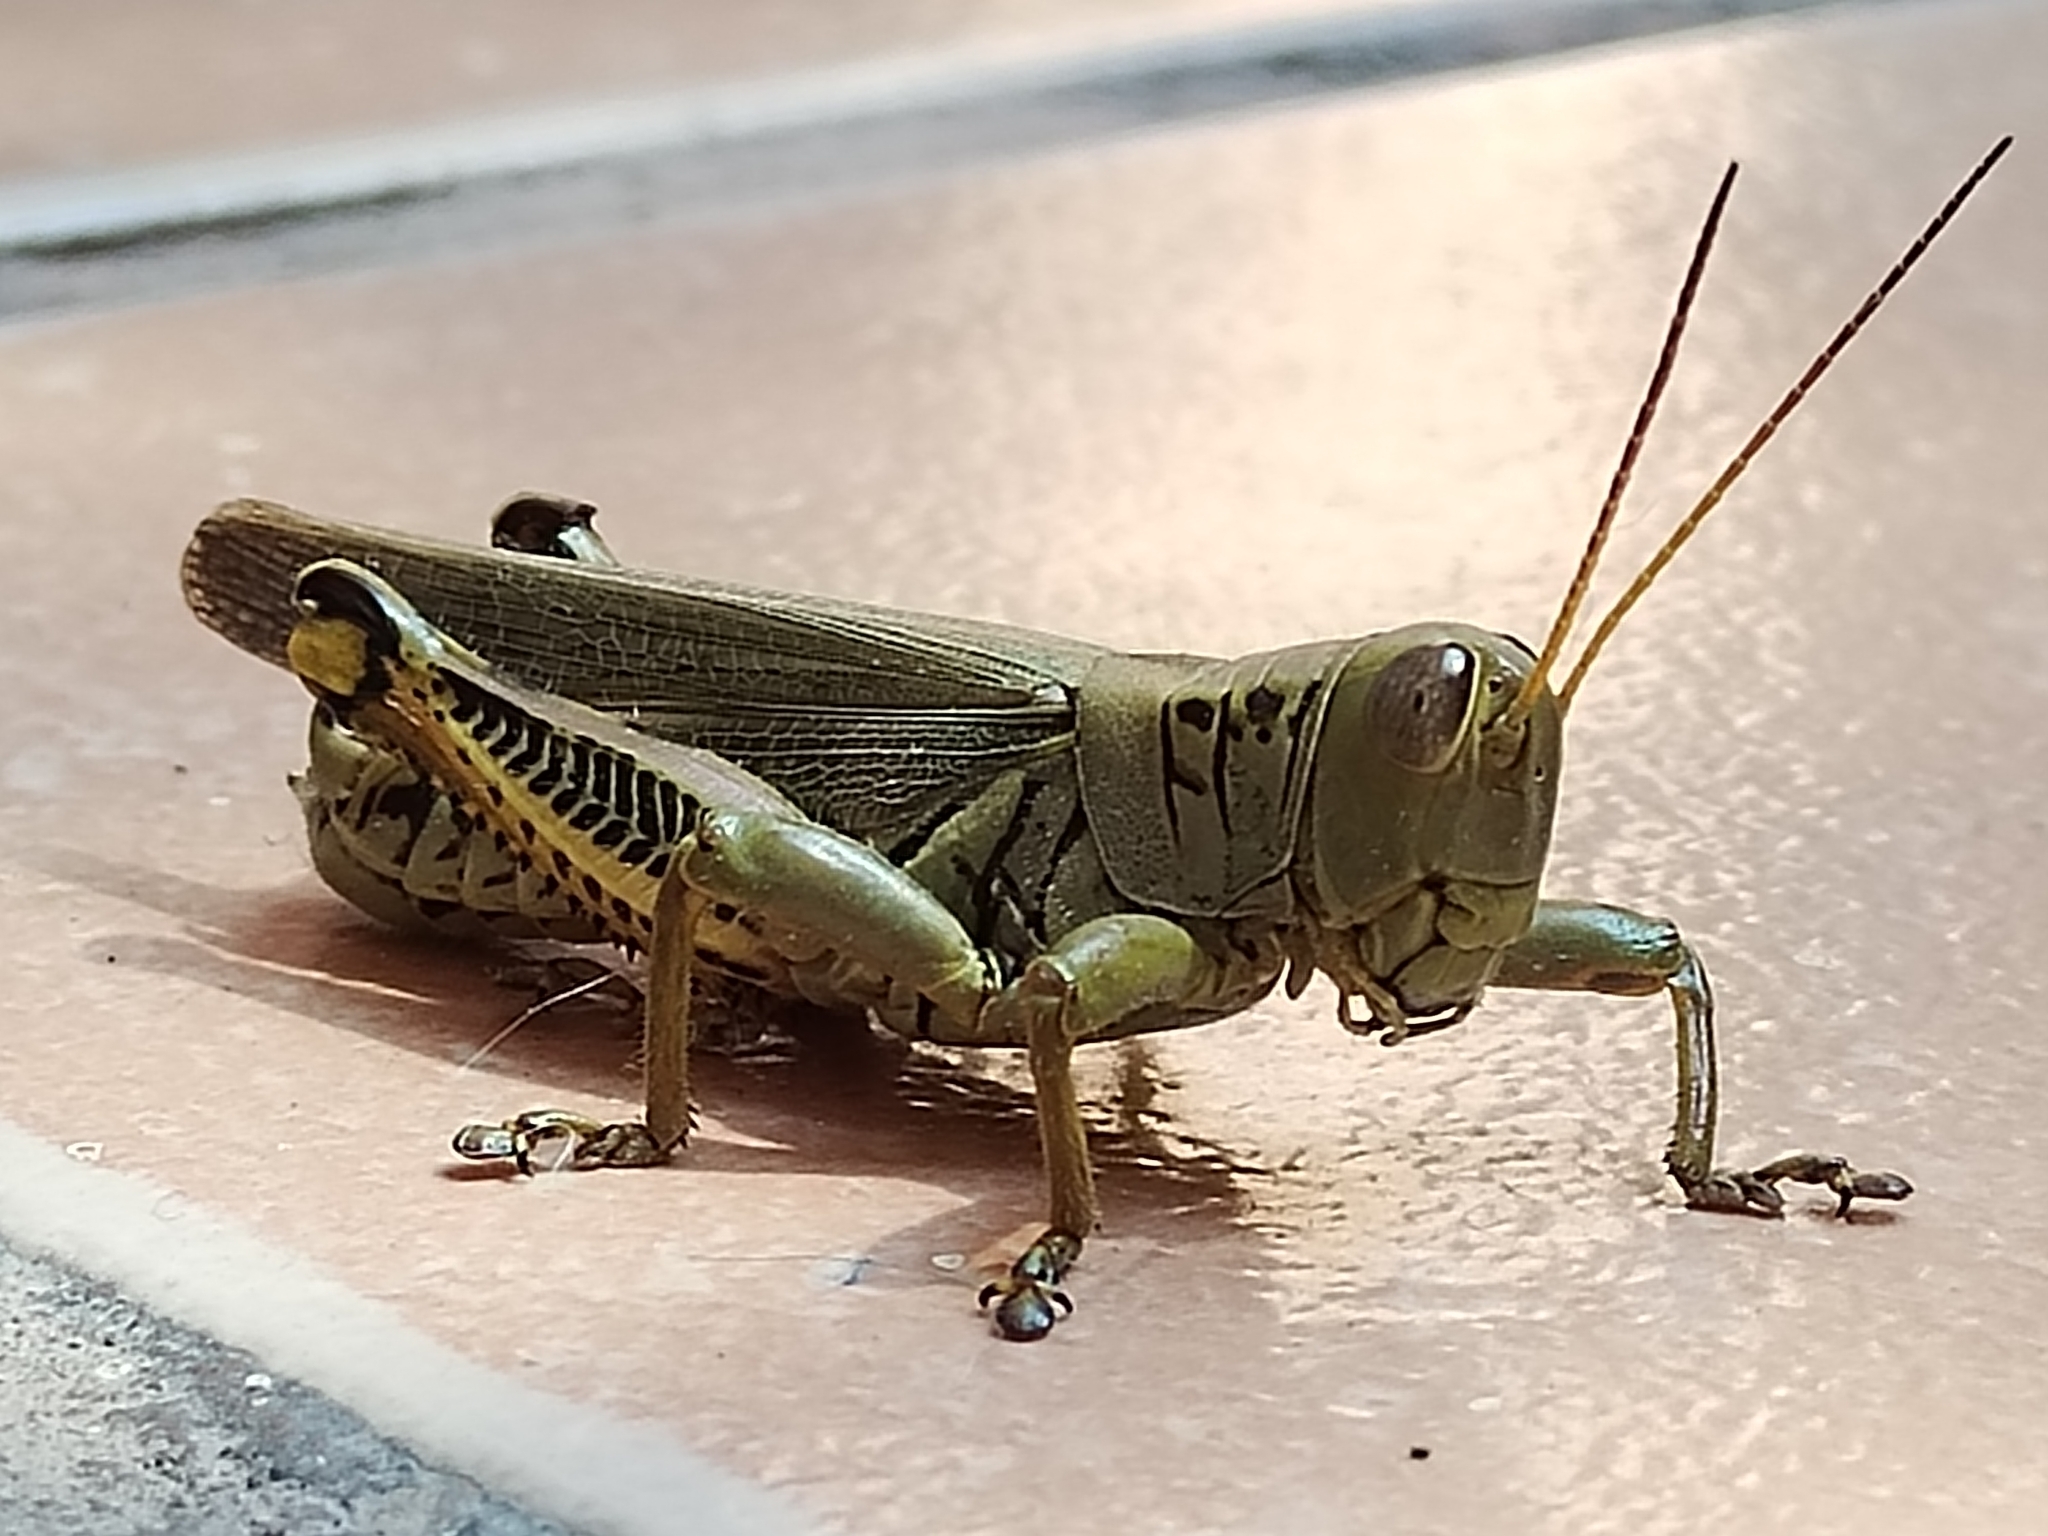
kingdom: Animalia
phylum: Arthropoda
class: Insecta
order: Orthoptera
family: Acrididae
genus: Melanoplus
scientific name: Melanoplus differentialis
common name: Differential grasshopper
